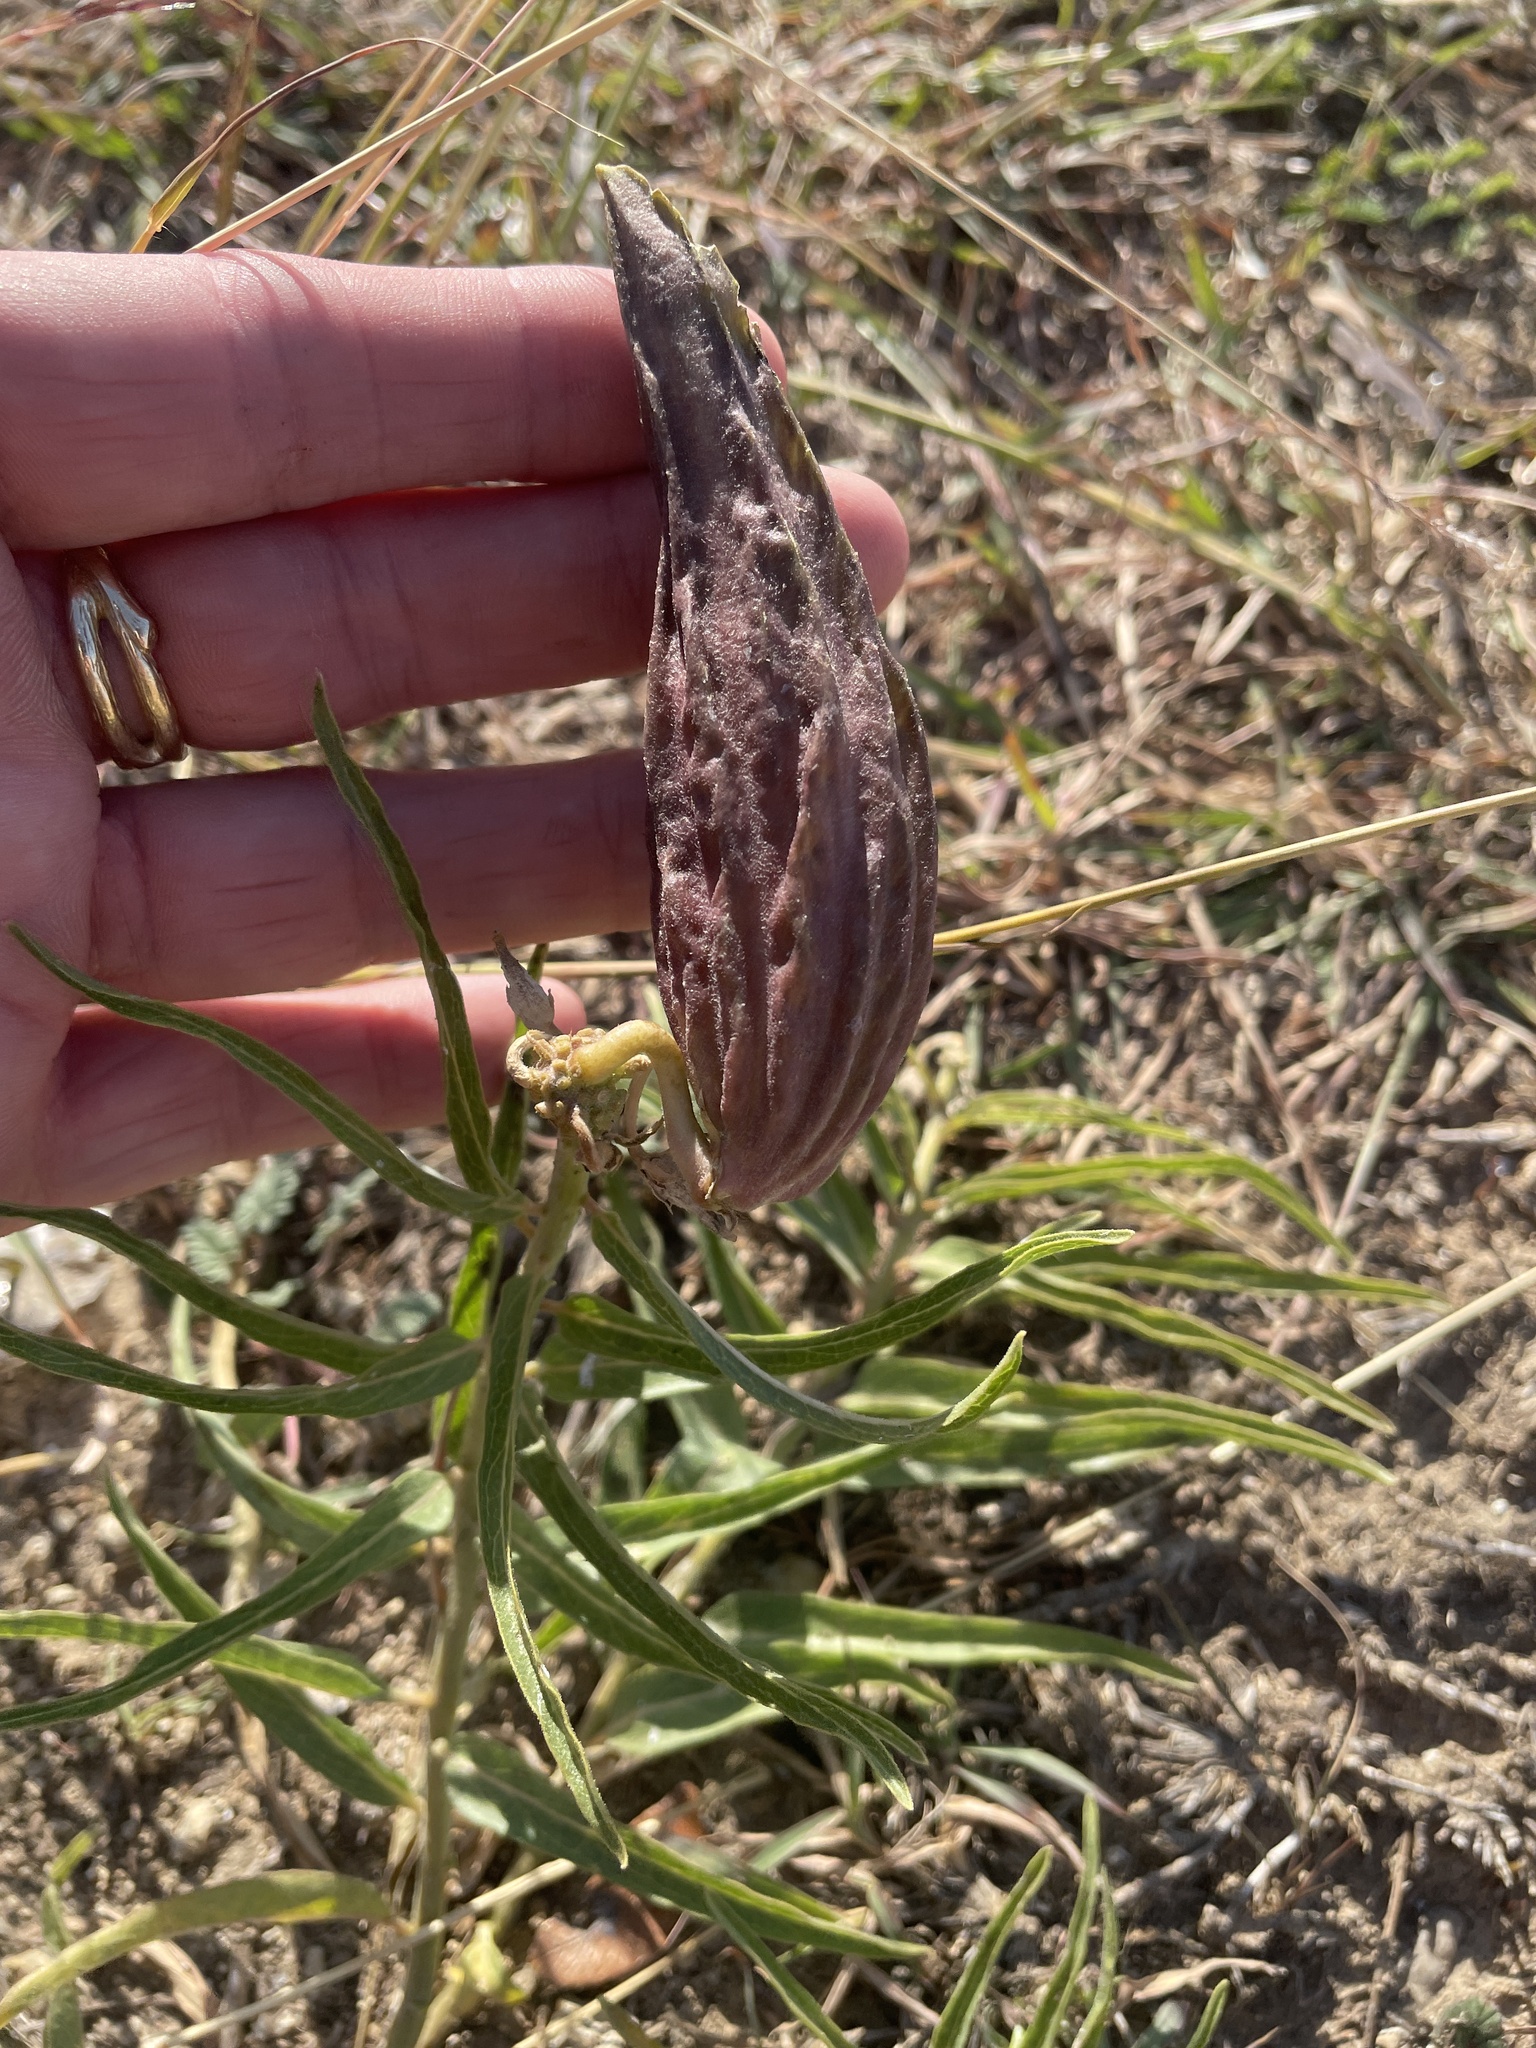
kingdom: Plantae
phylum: Tracheophyta
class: Magnoliopsida
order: Gentianales
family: Apocynaceae
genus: Asclepias
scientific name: Asclepias asperula
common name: Antelope horns
